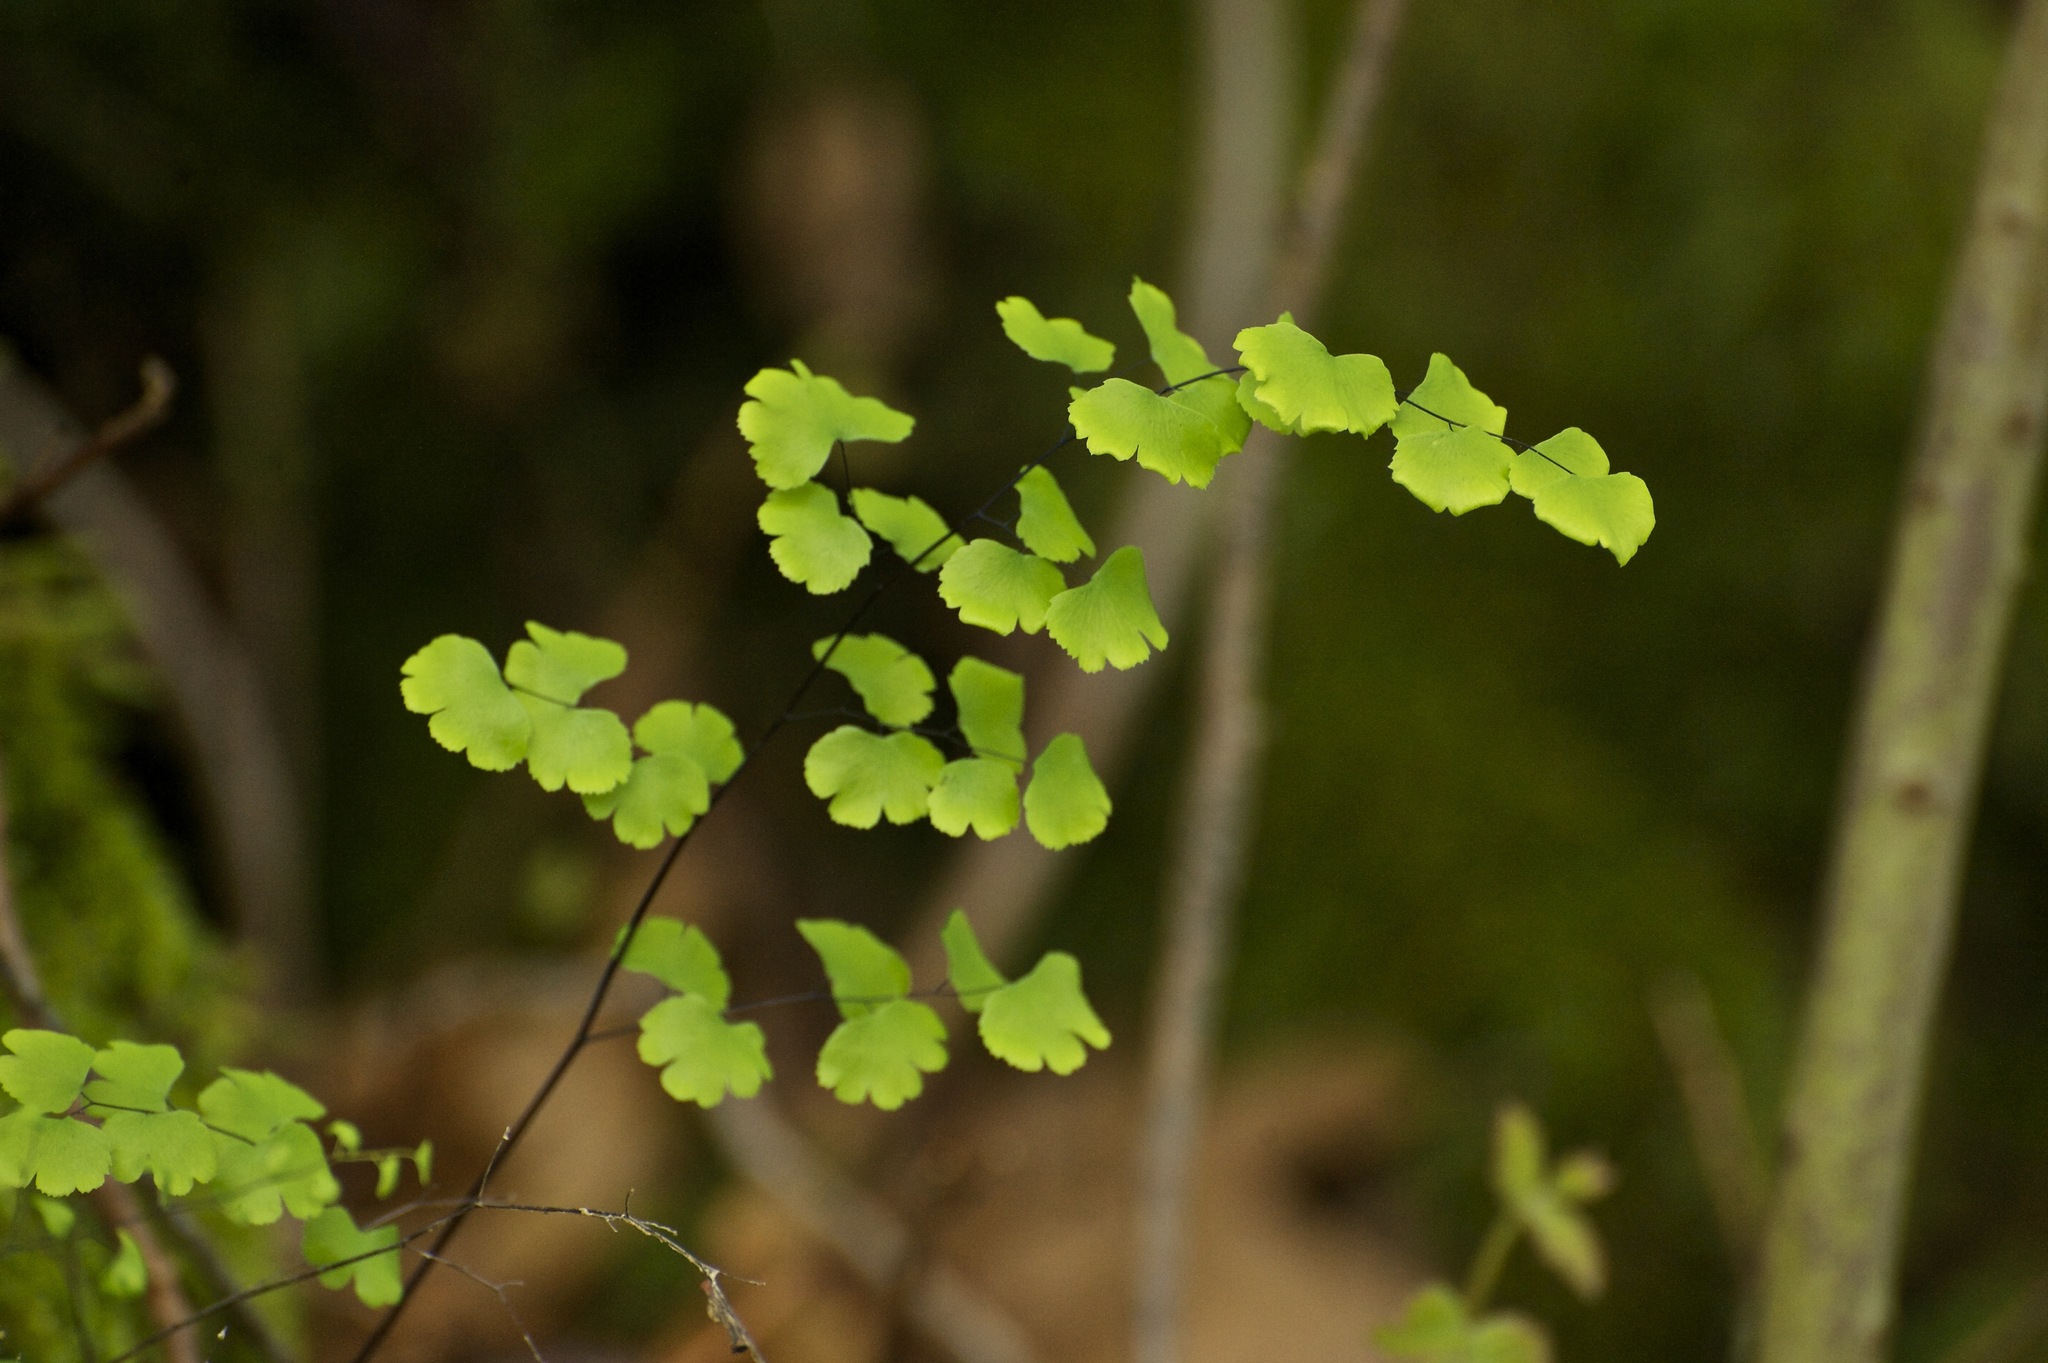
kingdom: Plantae
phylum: Tracheophyta
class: Polypodiopsida
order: Polypodiales
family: Pteridaceae
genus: Adiantum
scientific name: Adiantum jordanii
